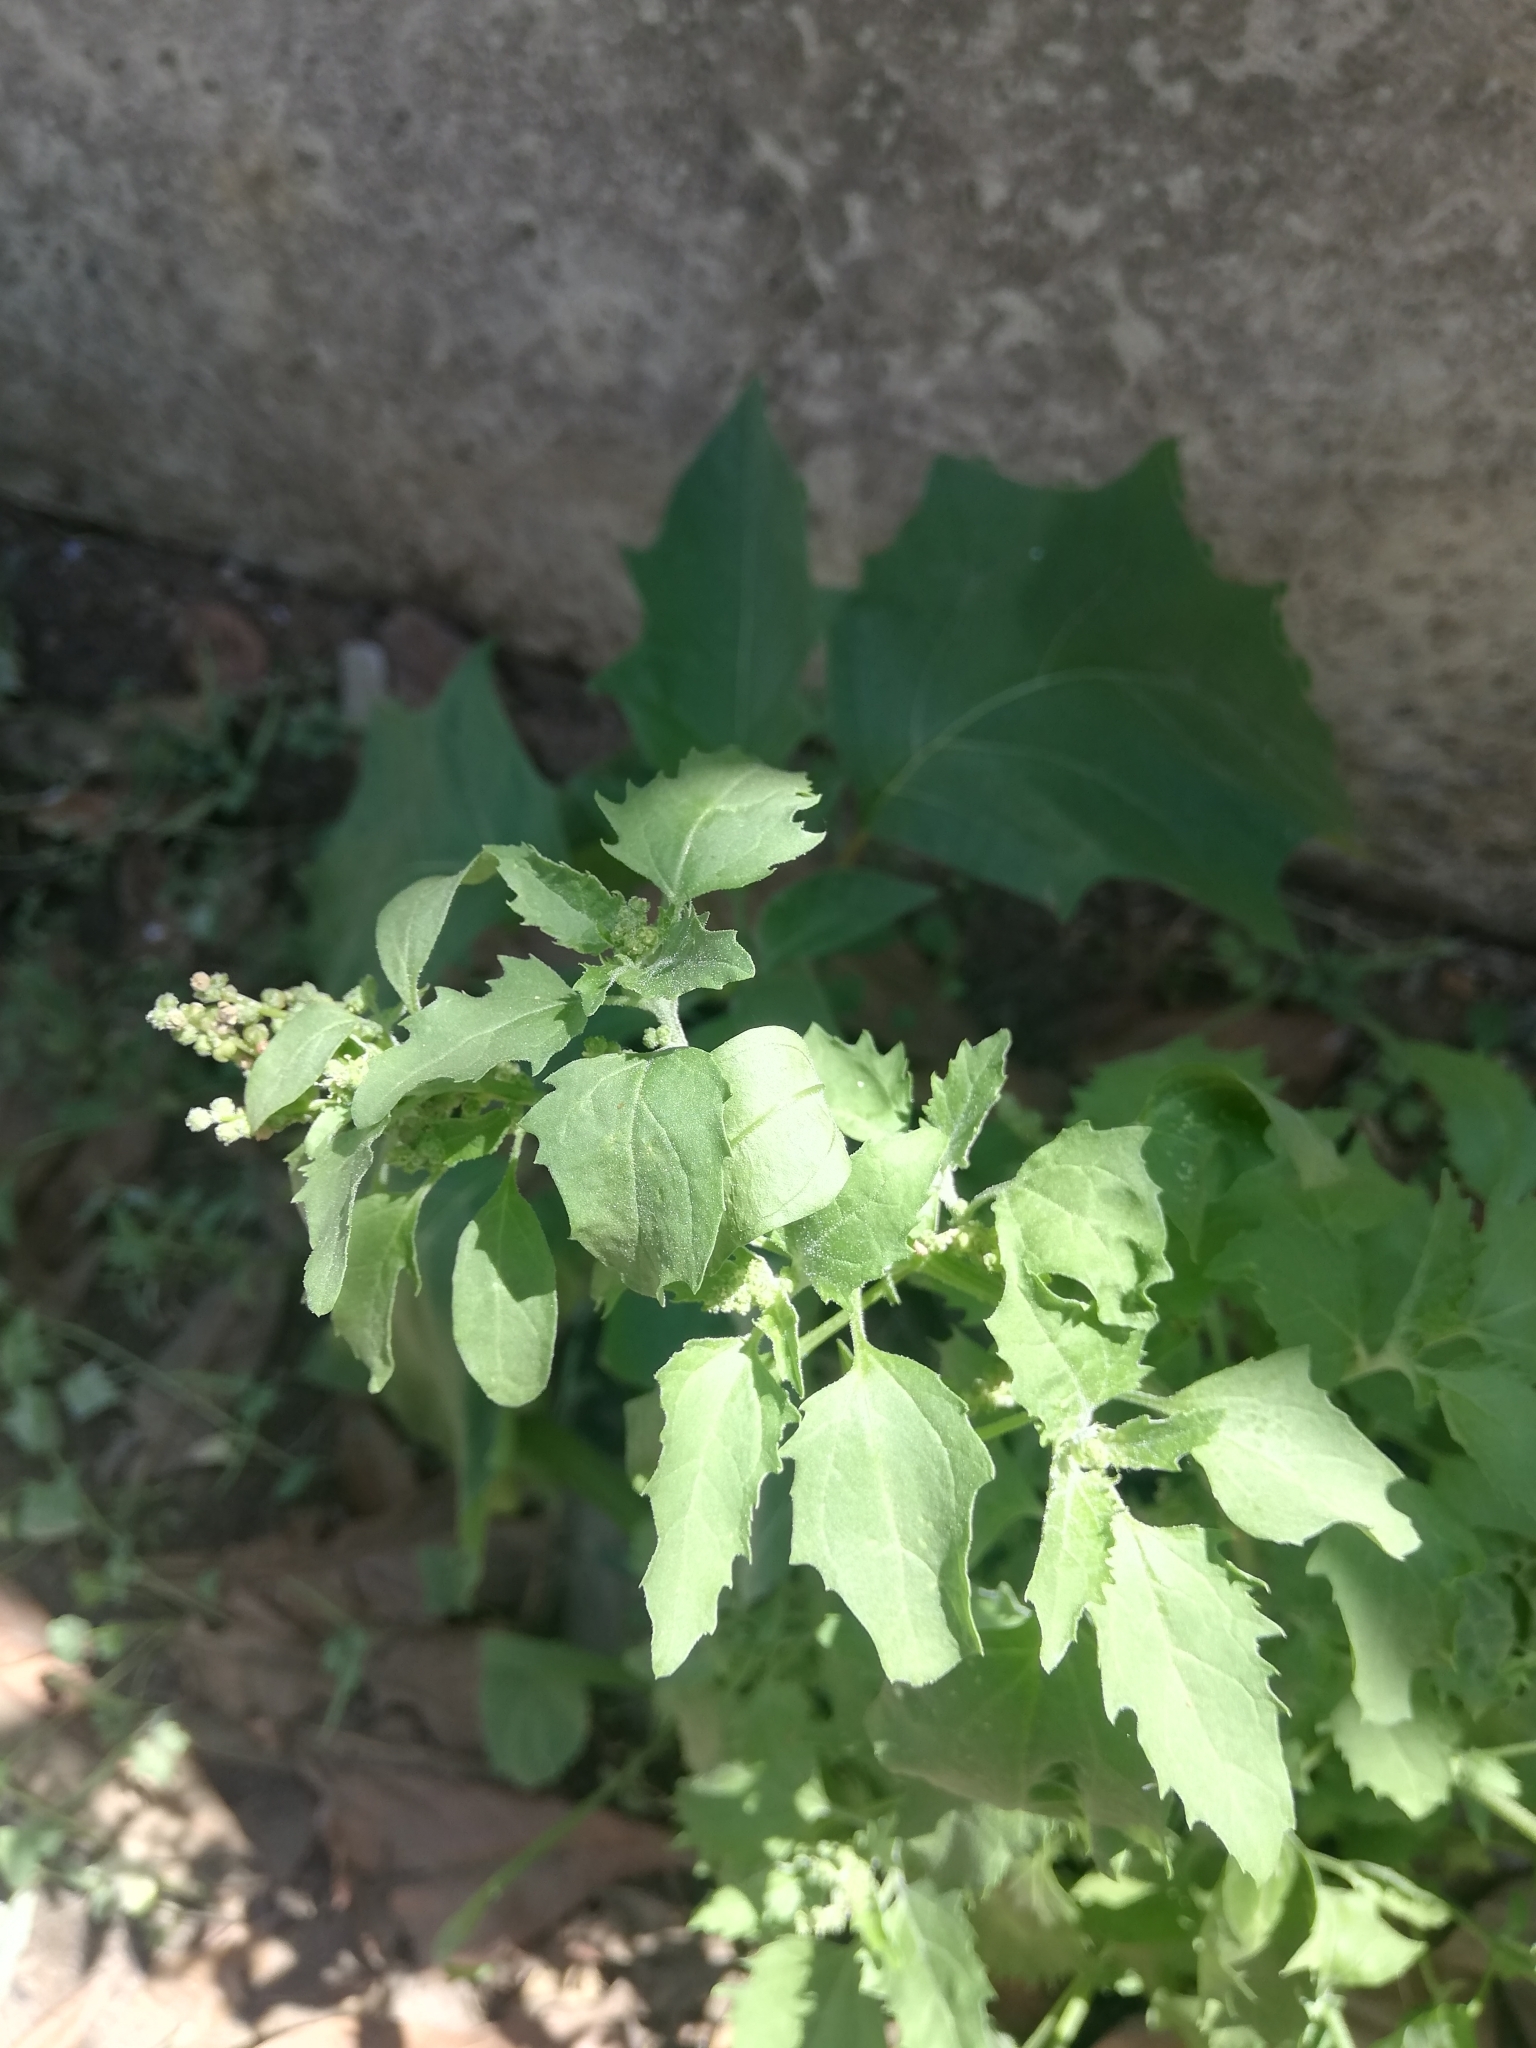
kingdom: Plantae
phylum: Tracheophyta
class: Magnoliopsida
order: Caryophyllales
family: Amaranthaceae
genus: Chenopodium
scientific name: Chenopodium album
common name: Fat-hen
